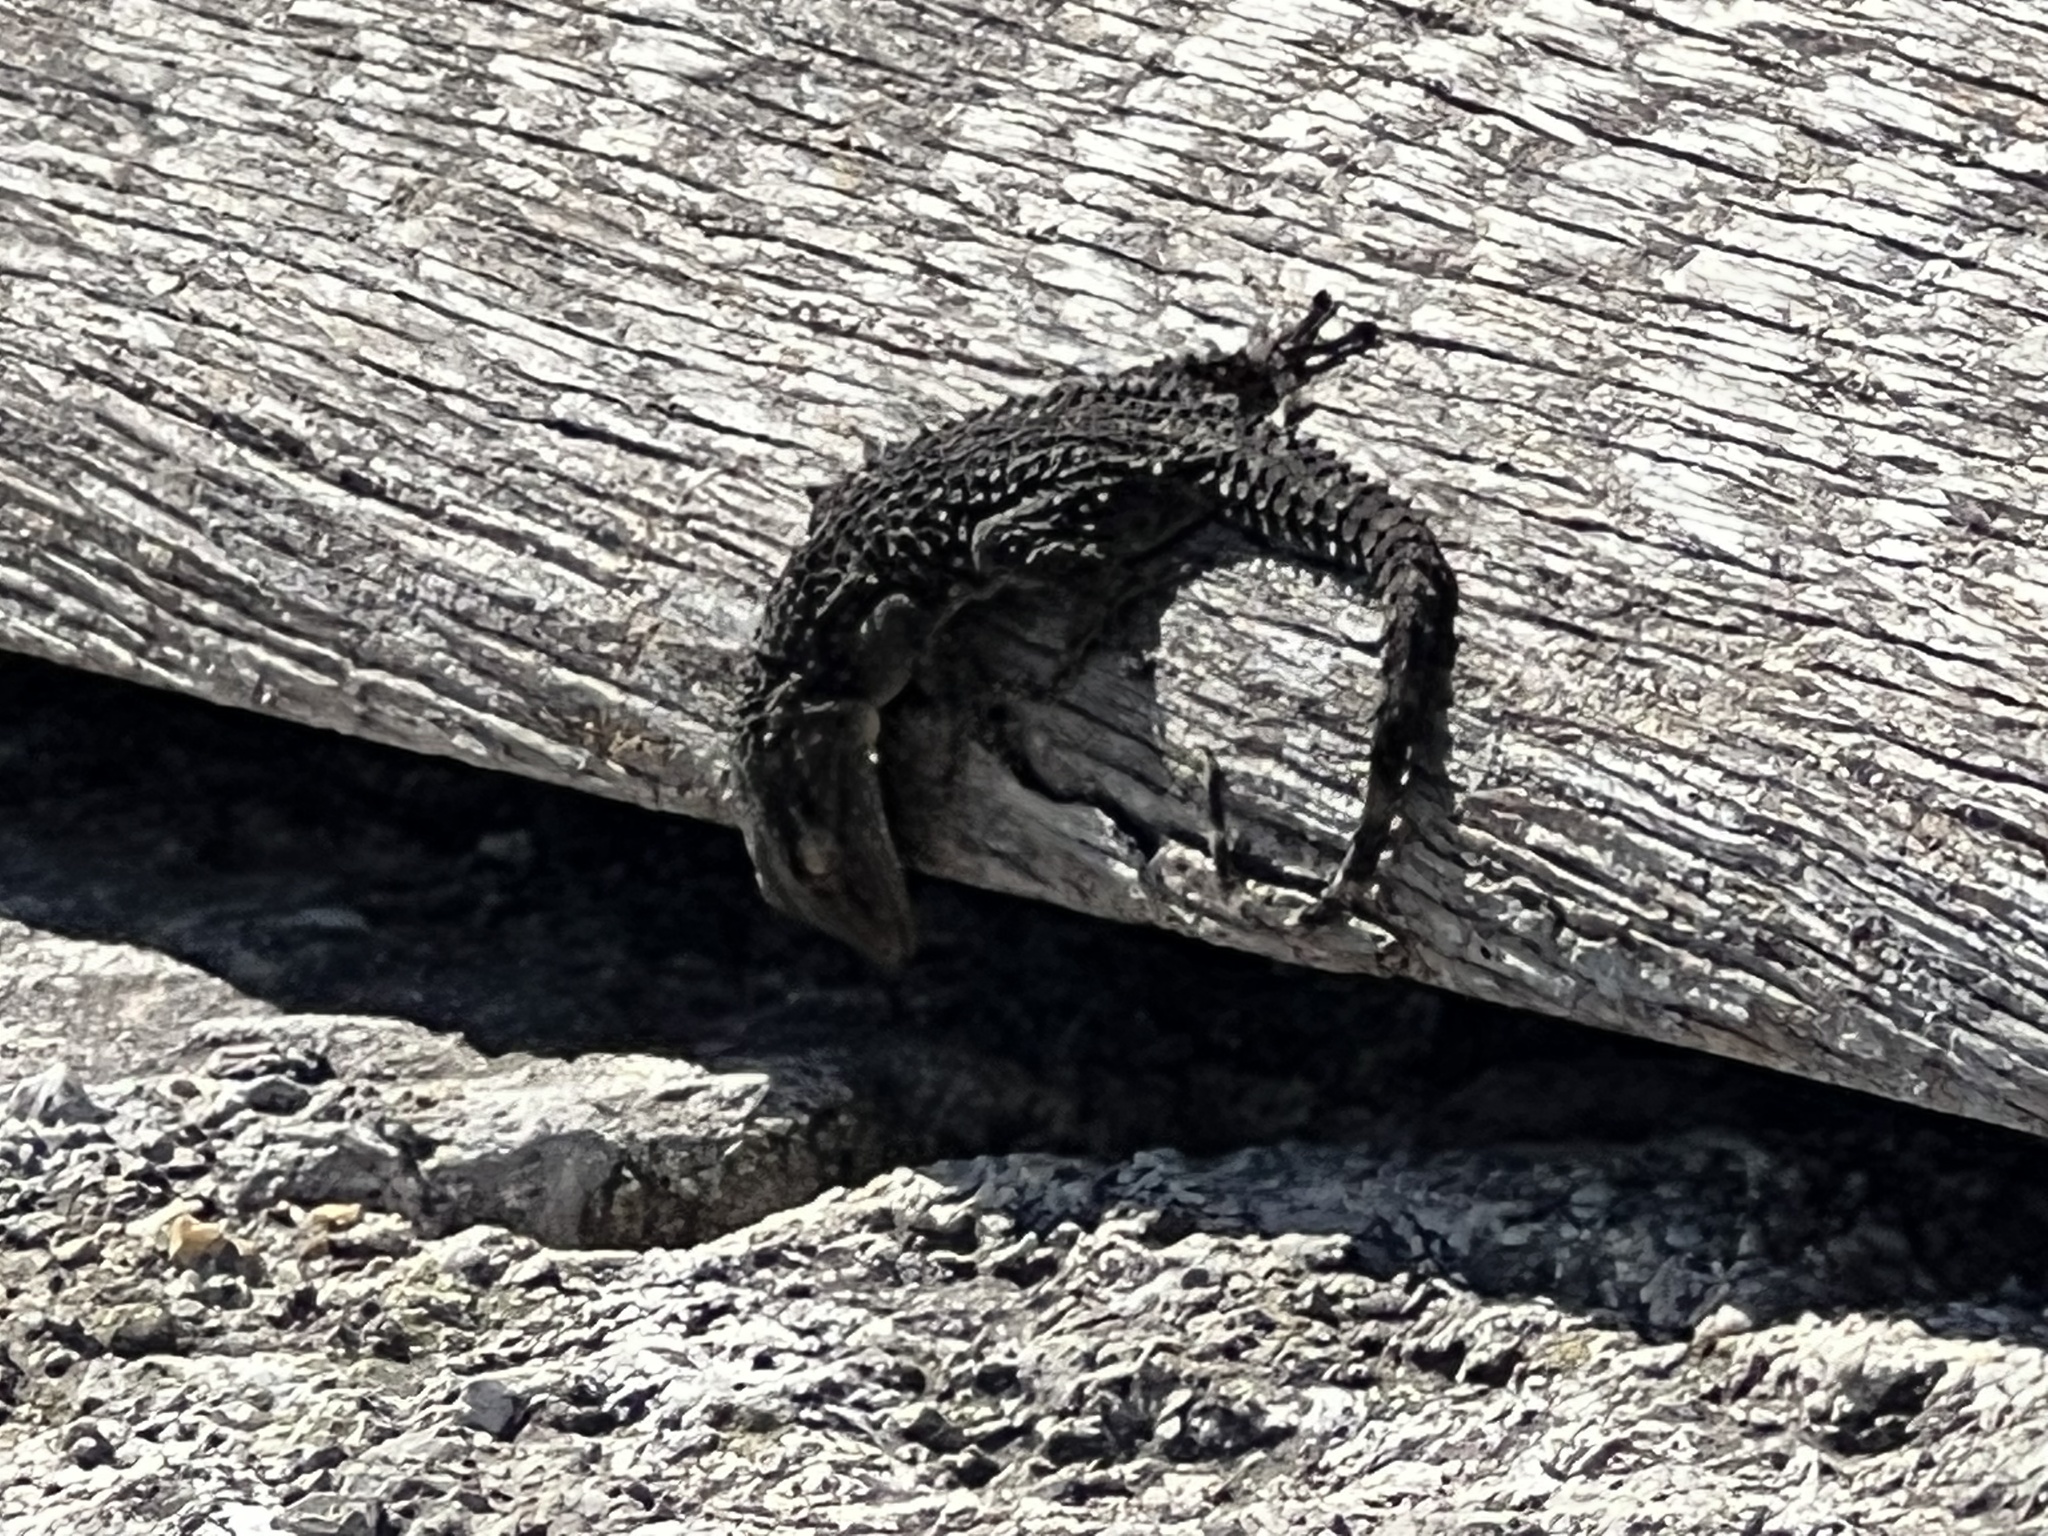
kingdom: Animalia
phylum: Chordata
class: Squamata
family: Phyllodactylidae
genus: Tarentola
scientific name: Tarentola mauritanica
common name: Moorish gecko
